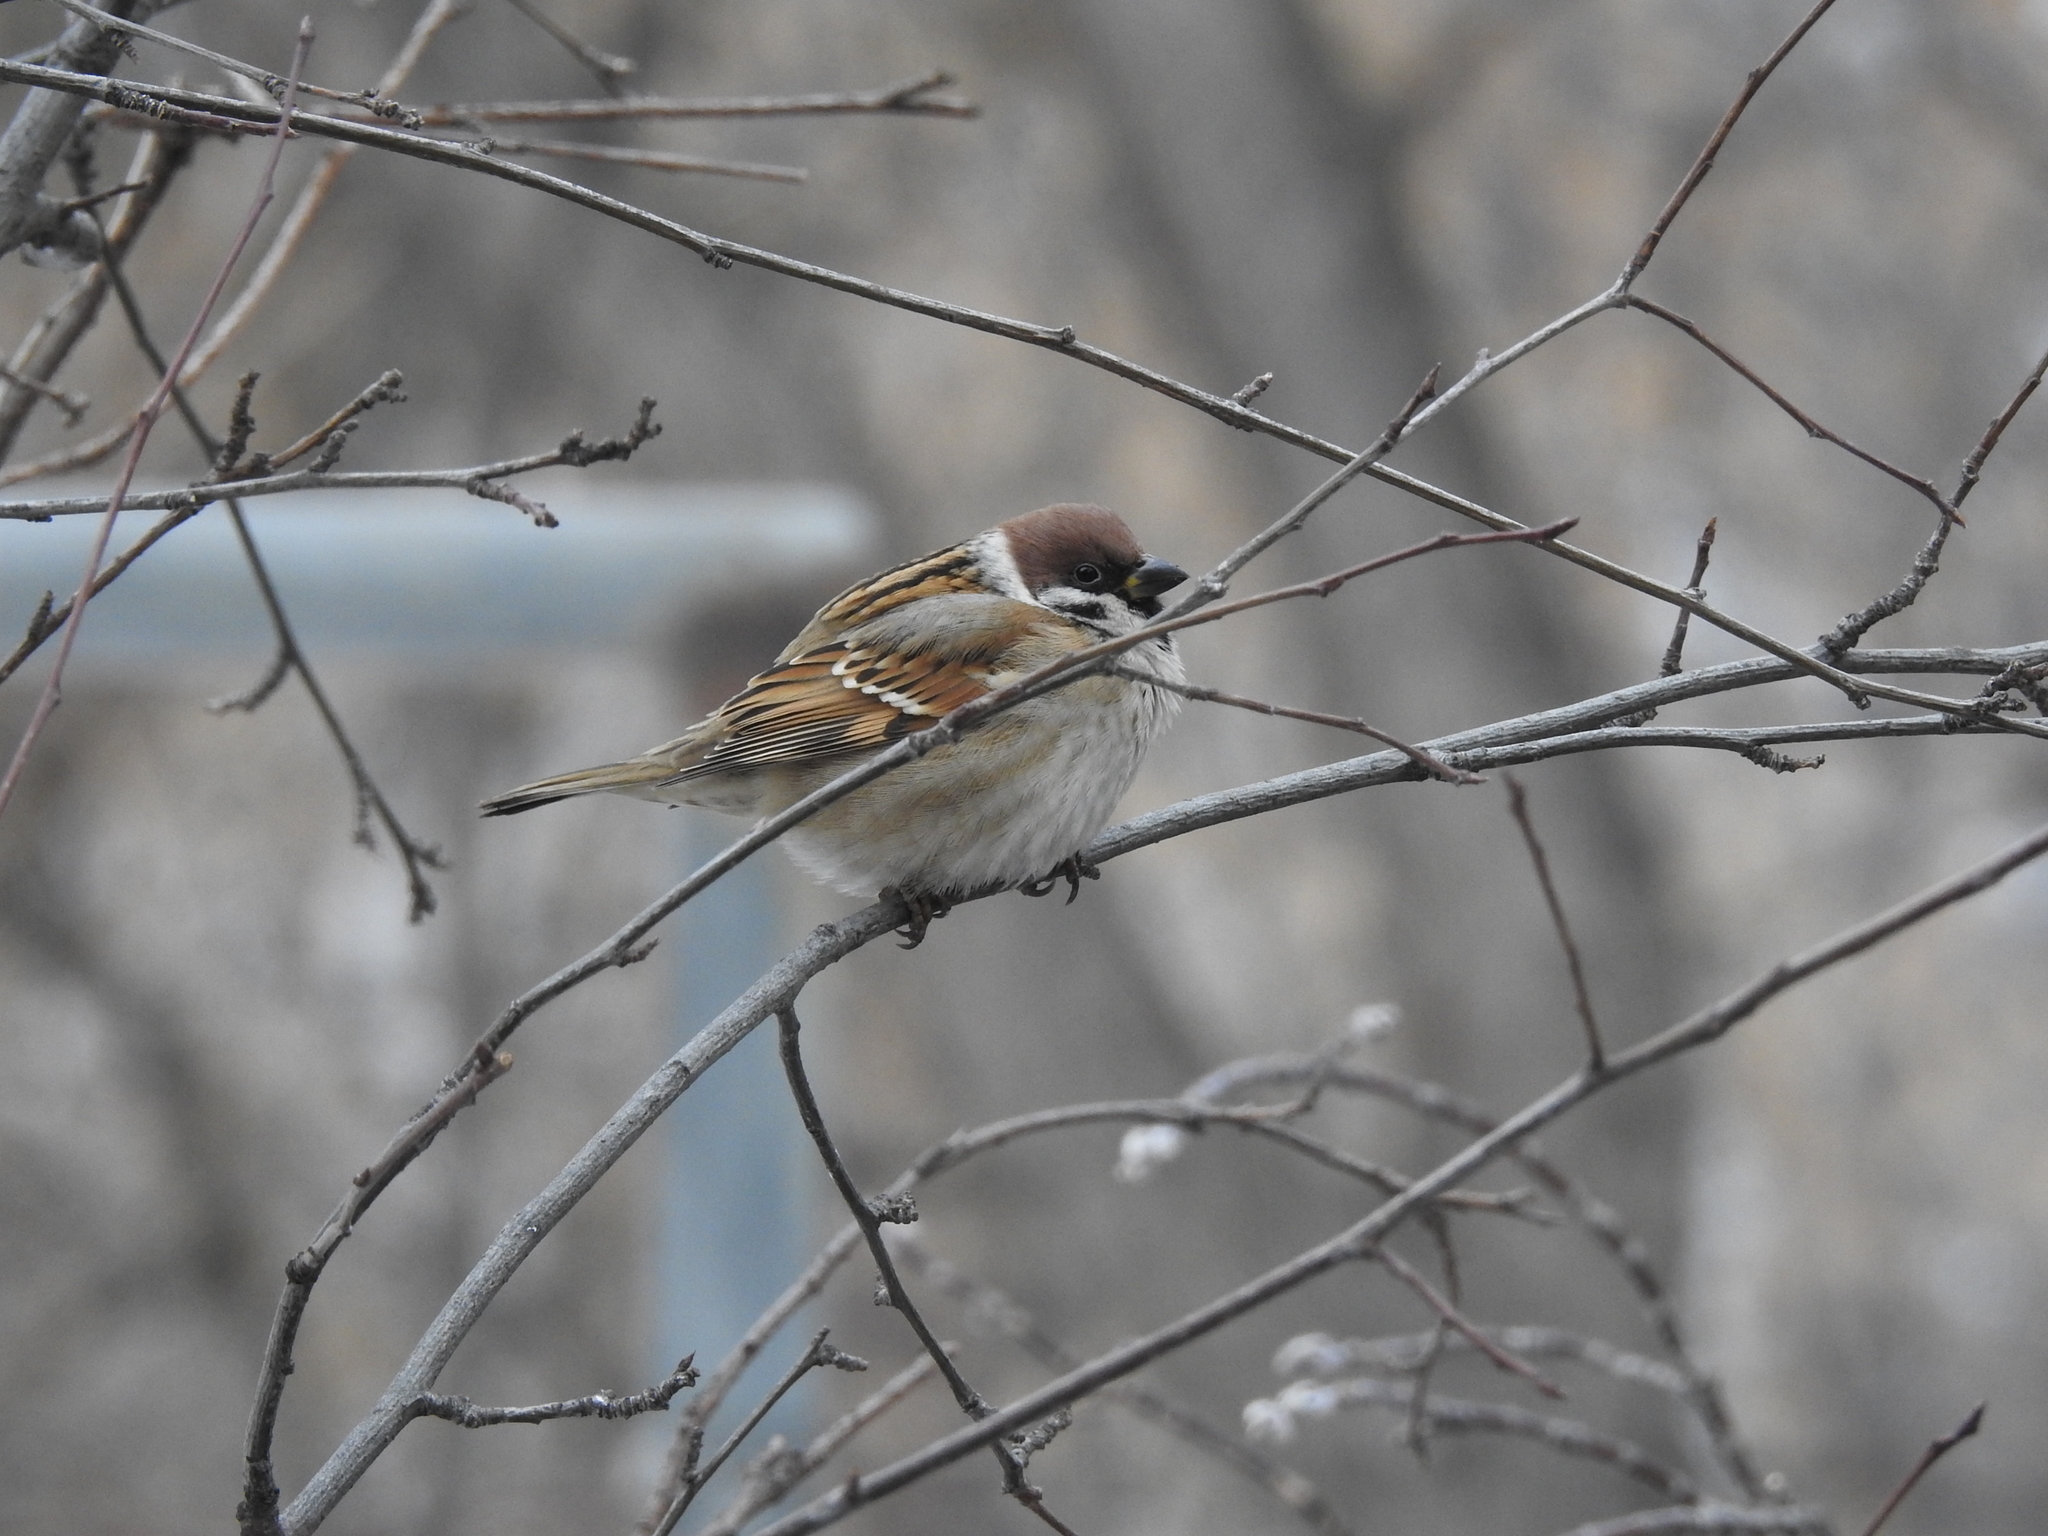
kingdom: Animalia
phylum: Chordata
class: Aves
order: Passeriformes
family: Passeridae
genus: Passer
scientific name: Passer montanus
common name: Eurasian tree sparrow
